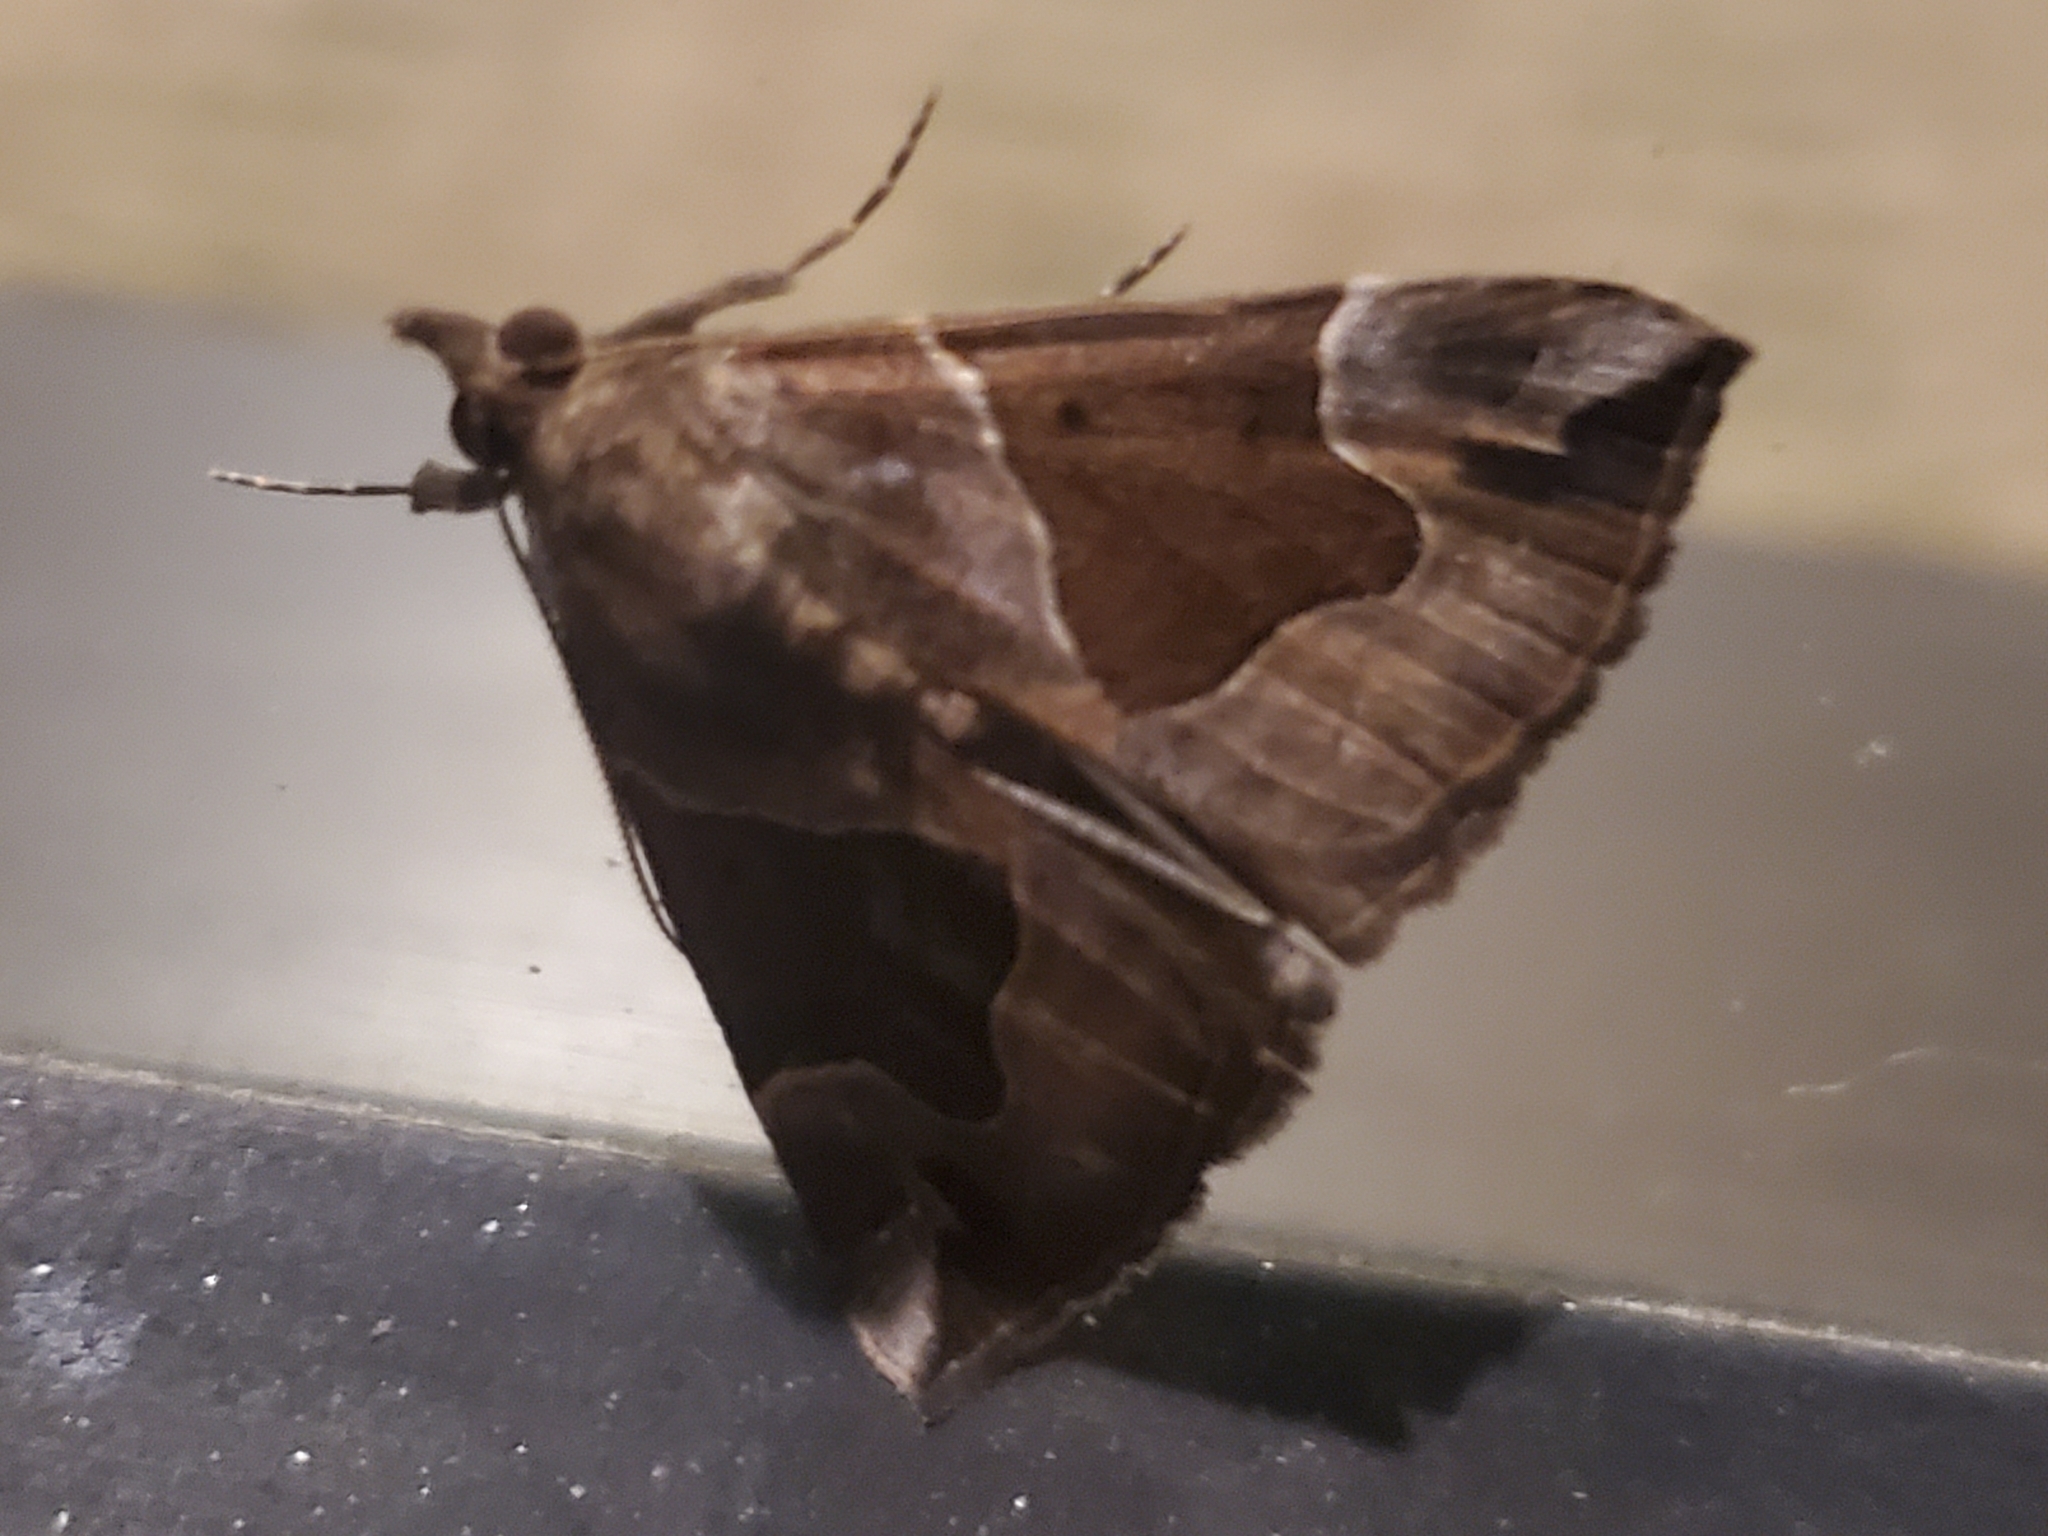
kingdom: Animalia
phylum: Arthropoda
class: Insecta
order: Lepidoptera
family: Erebidae
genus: Hypena
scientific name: Hypena manalis
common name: Flowing-line bomolocha moth
